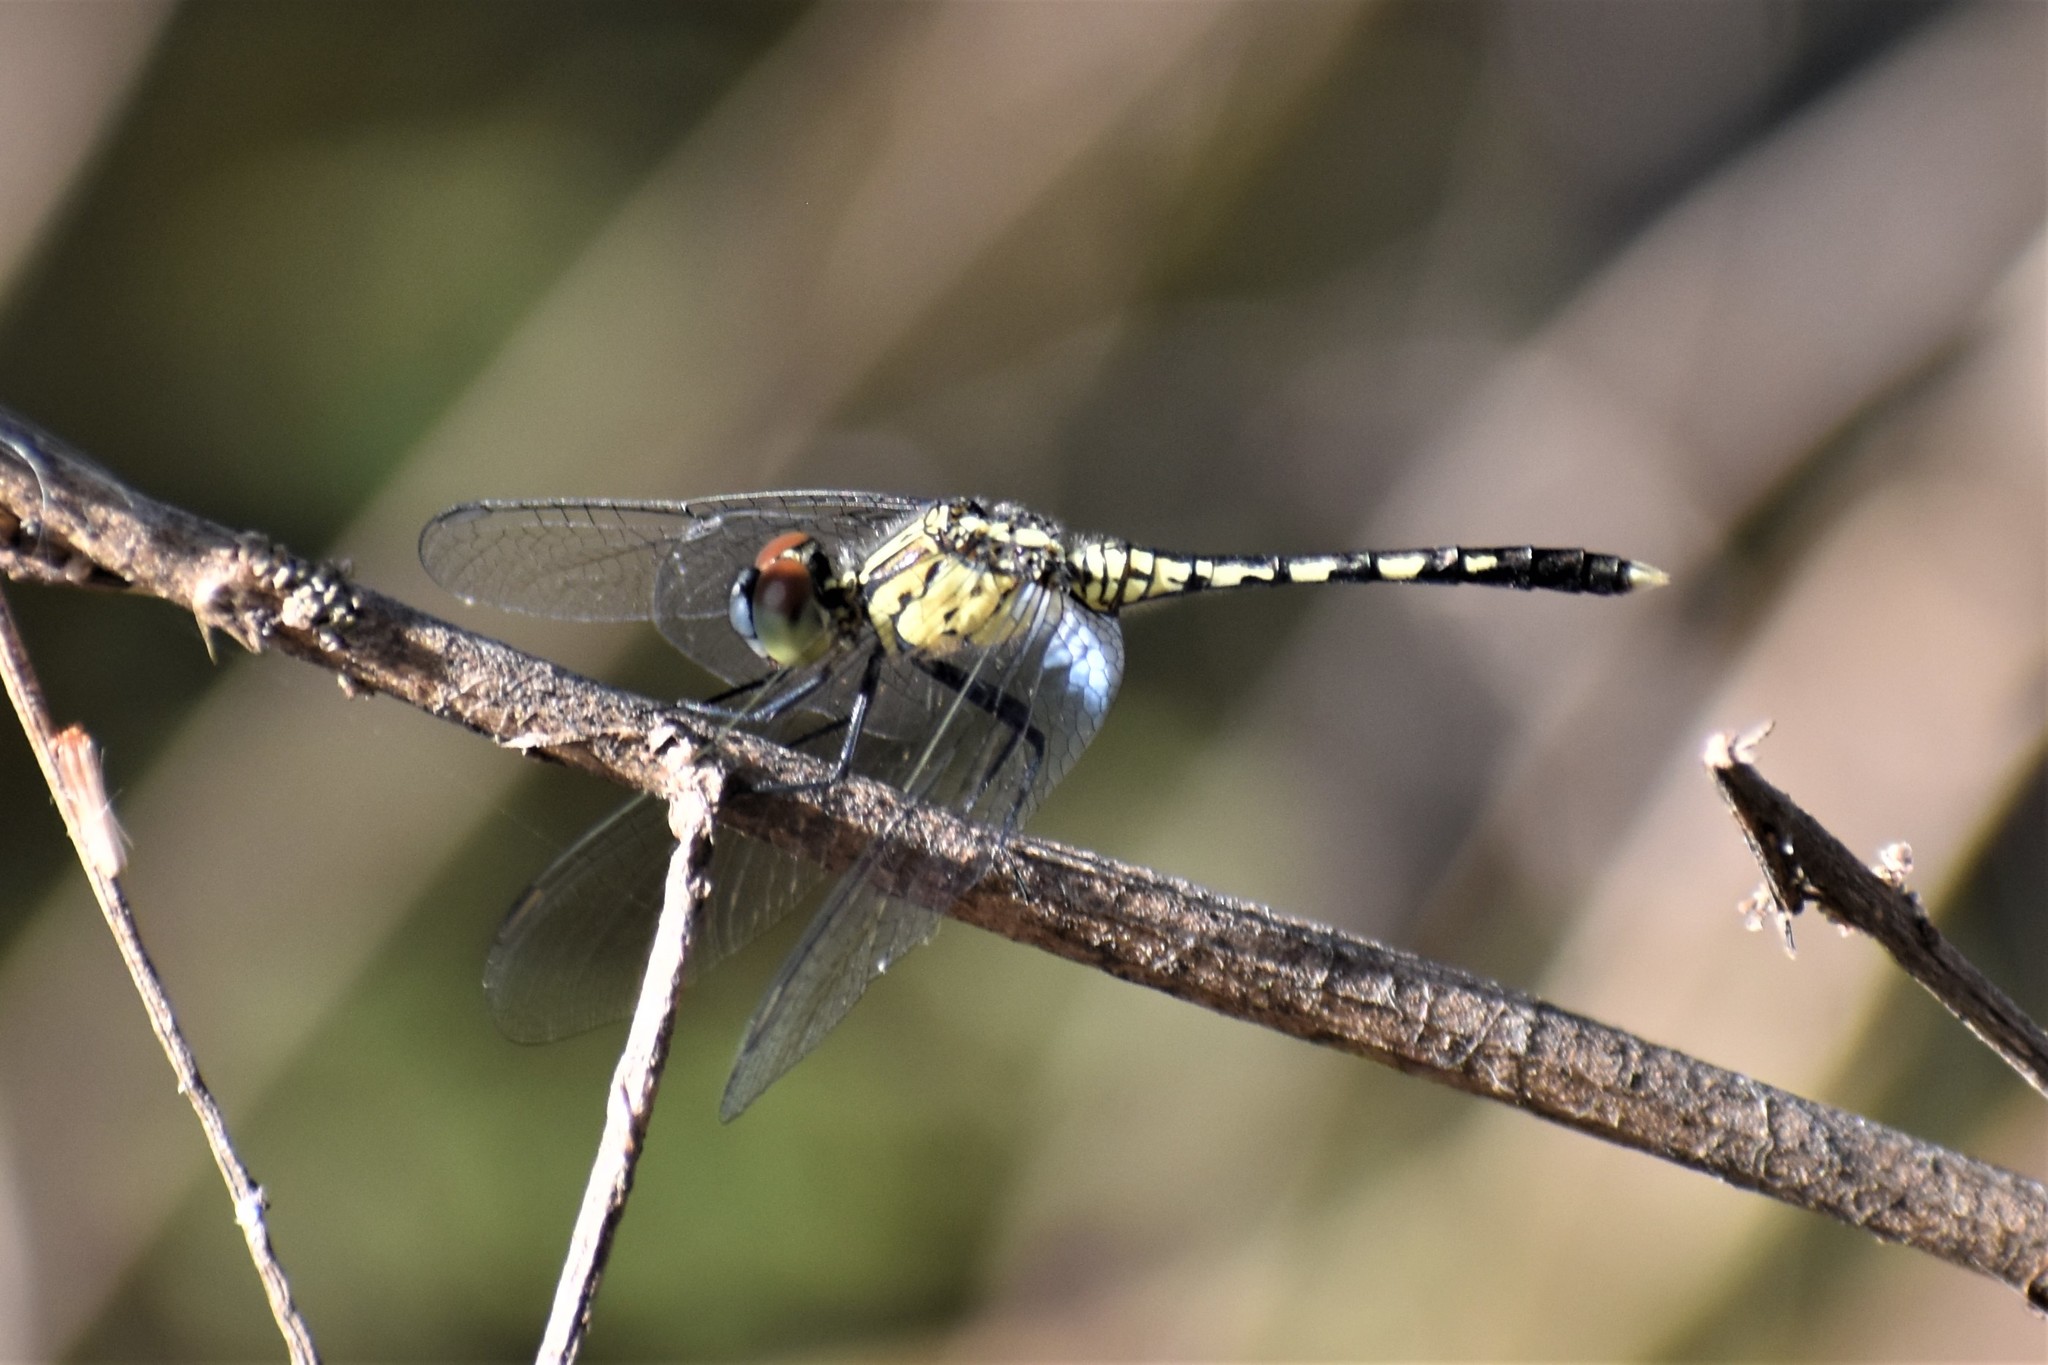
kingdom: Animalia
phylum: Arthropoda
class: Insecta
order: Odonata
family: Libellulidae
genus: Diplacodes
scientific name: Diplacodes trivialis
